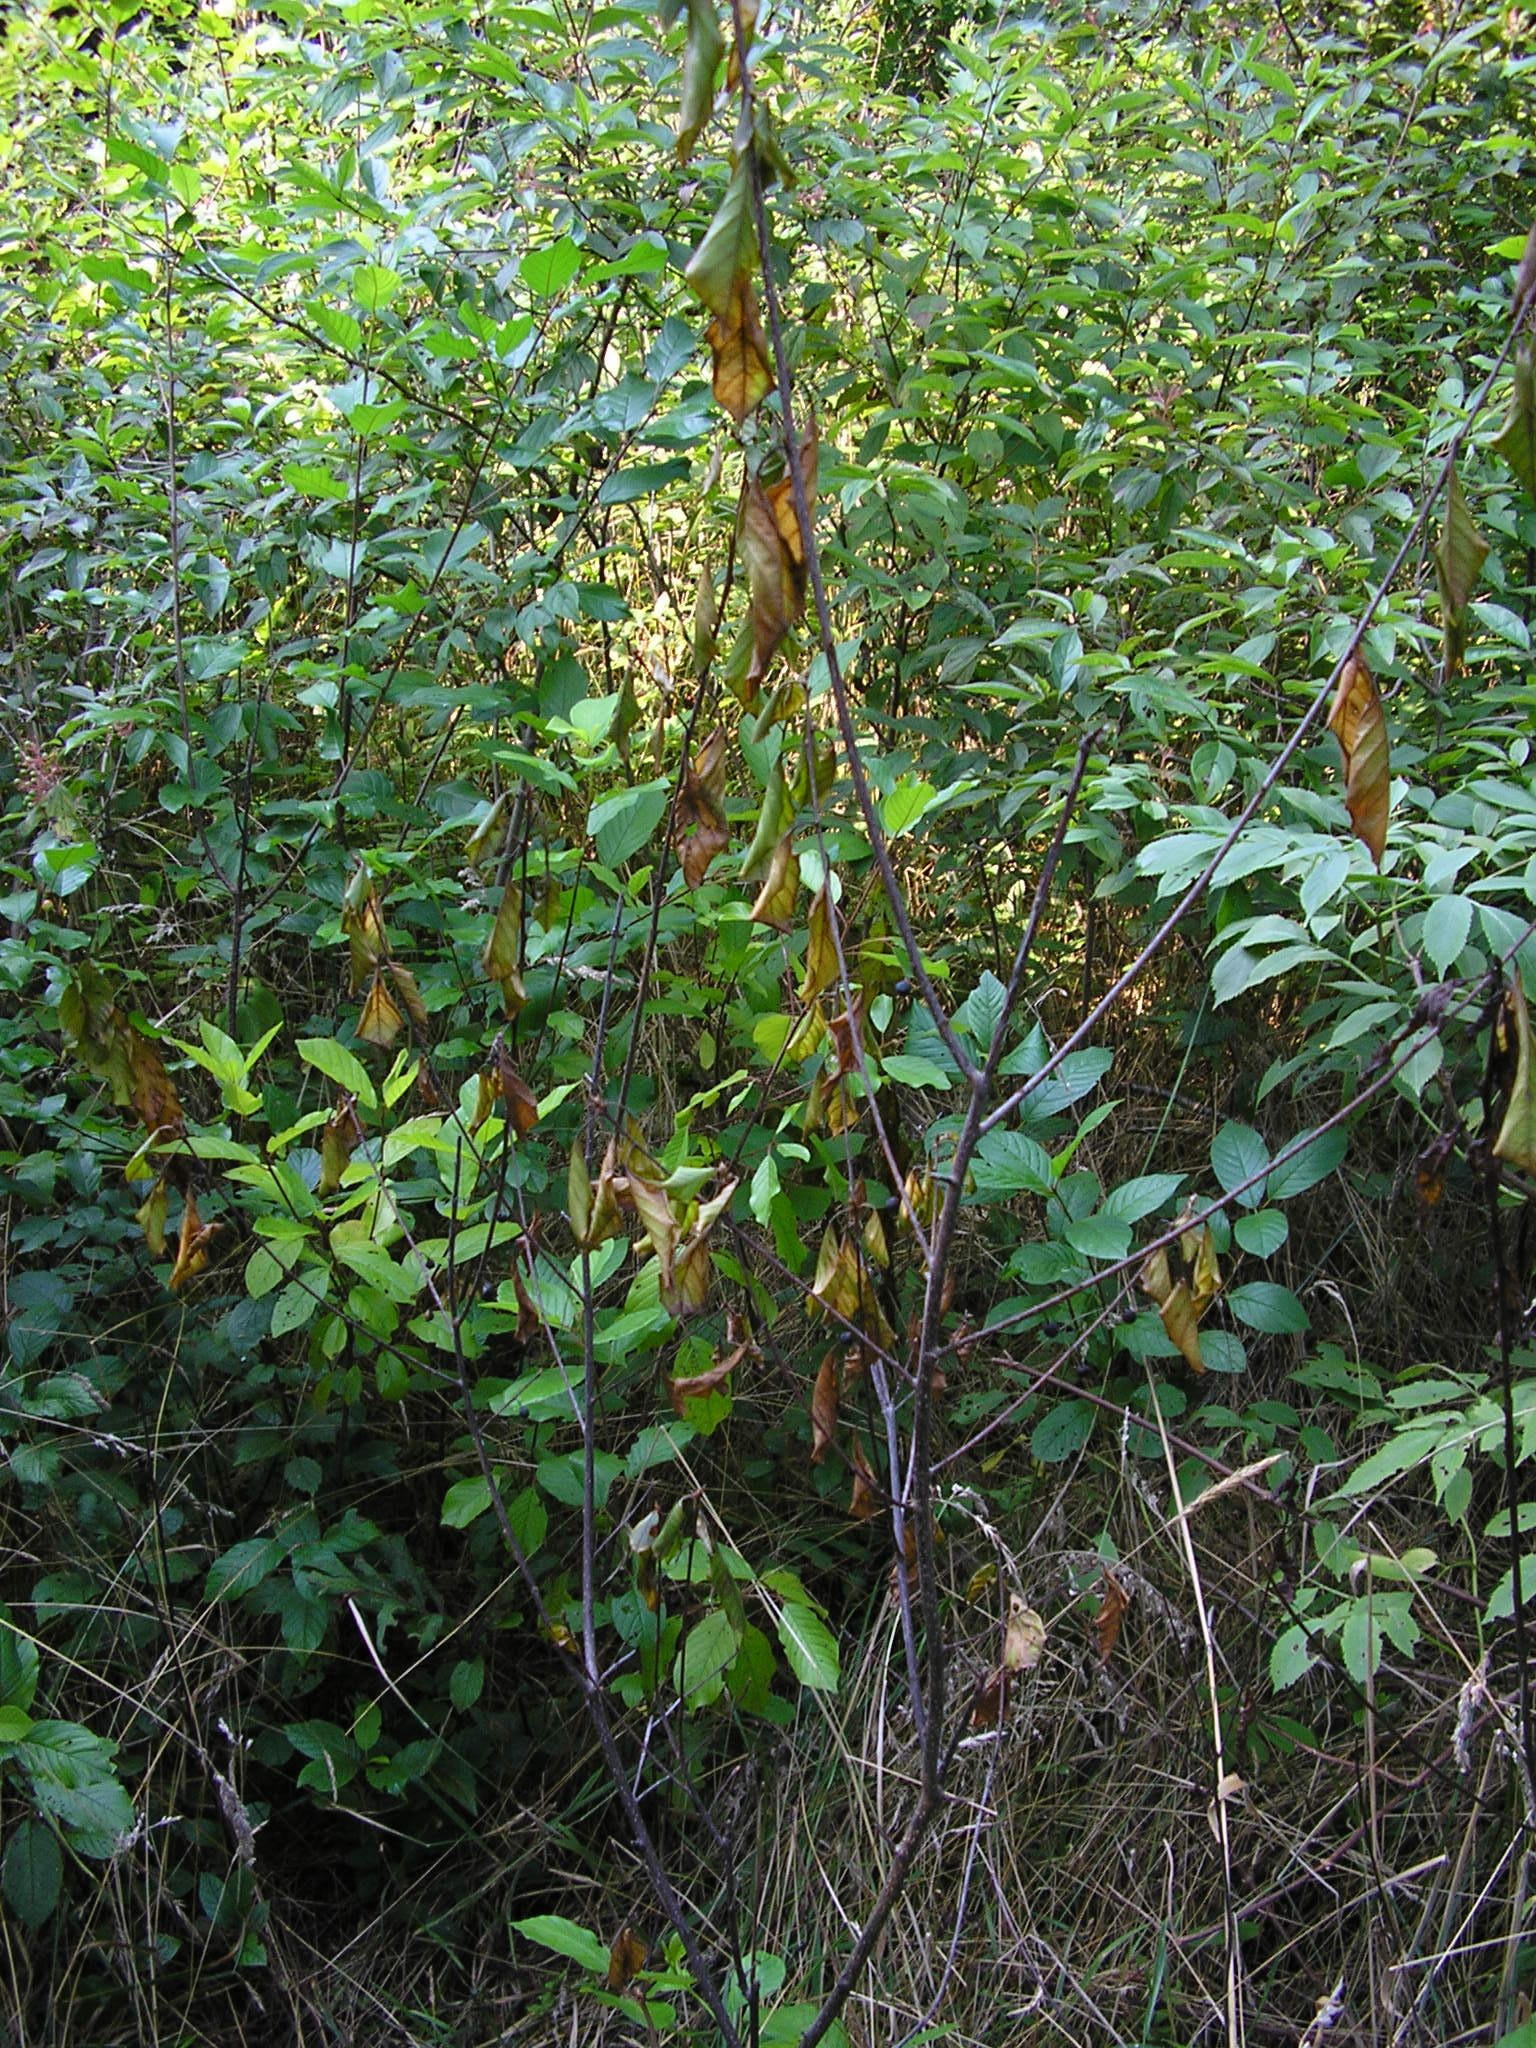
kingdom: Plantae
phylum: Tracheophyta
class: Magnoliopsida
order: Rosales
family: Rhamnaceae
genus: Frangula
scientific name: Frangula alnus
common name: Alder buckthorn
